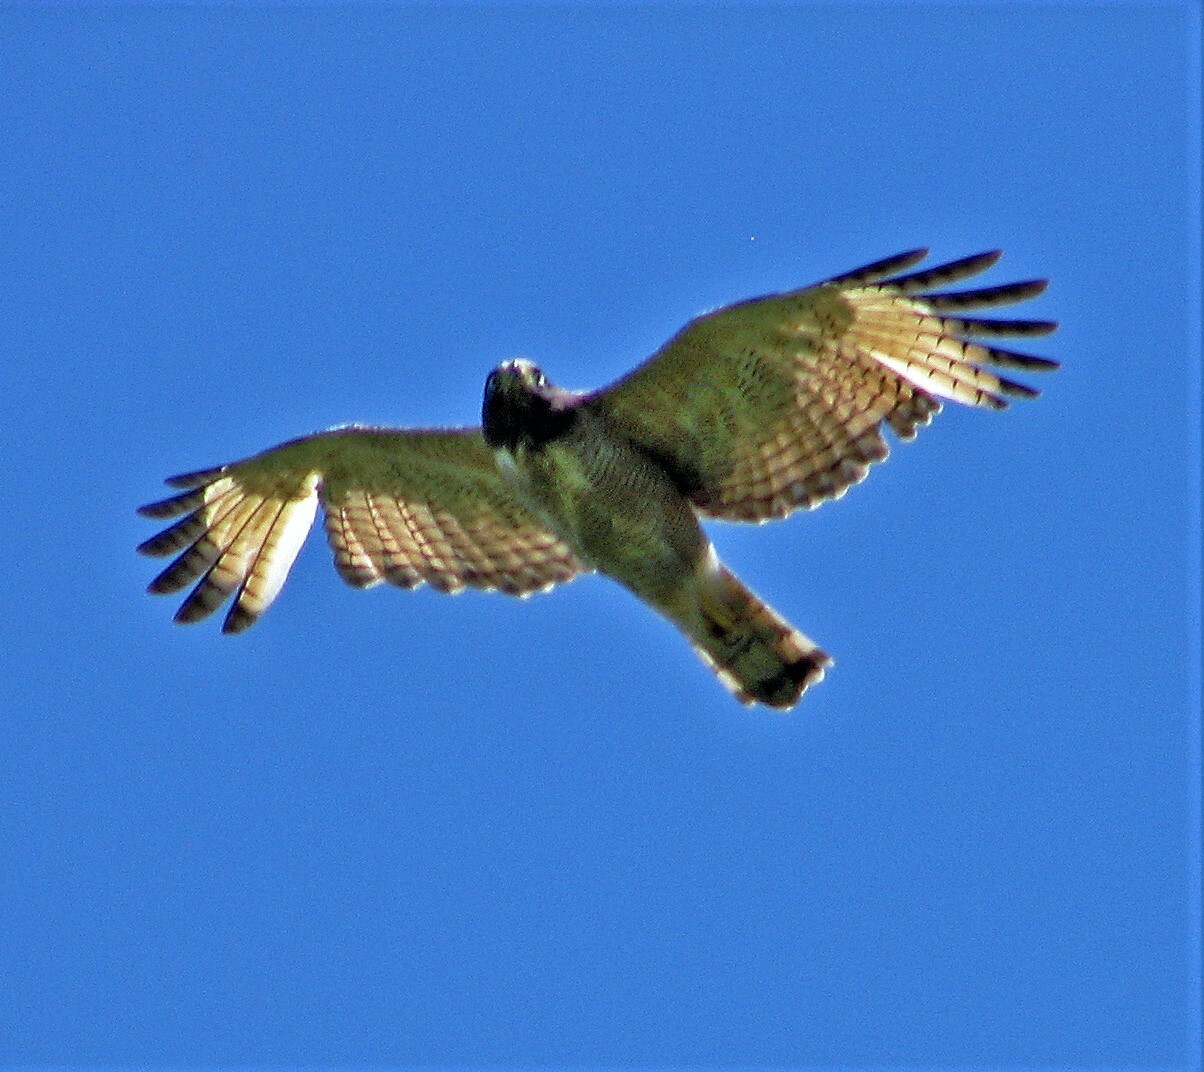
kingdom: Animalia
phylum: Chordata
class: Aves
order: Accipitriformes
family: Accipitridae
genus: Rupornis
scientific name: Rupornis magnirostris
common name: Roadside hawk
